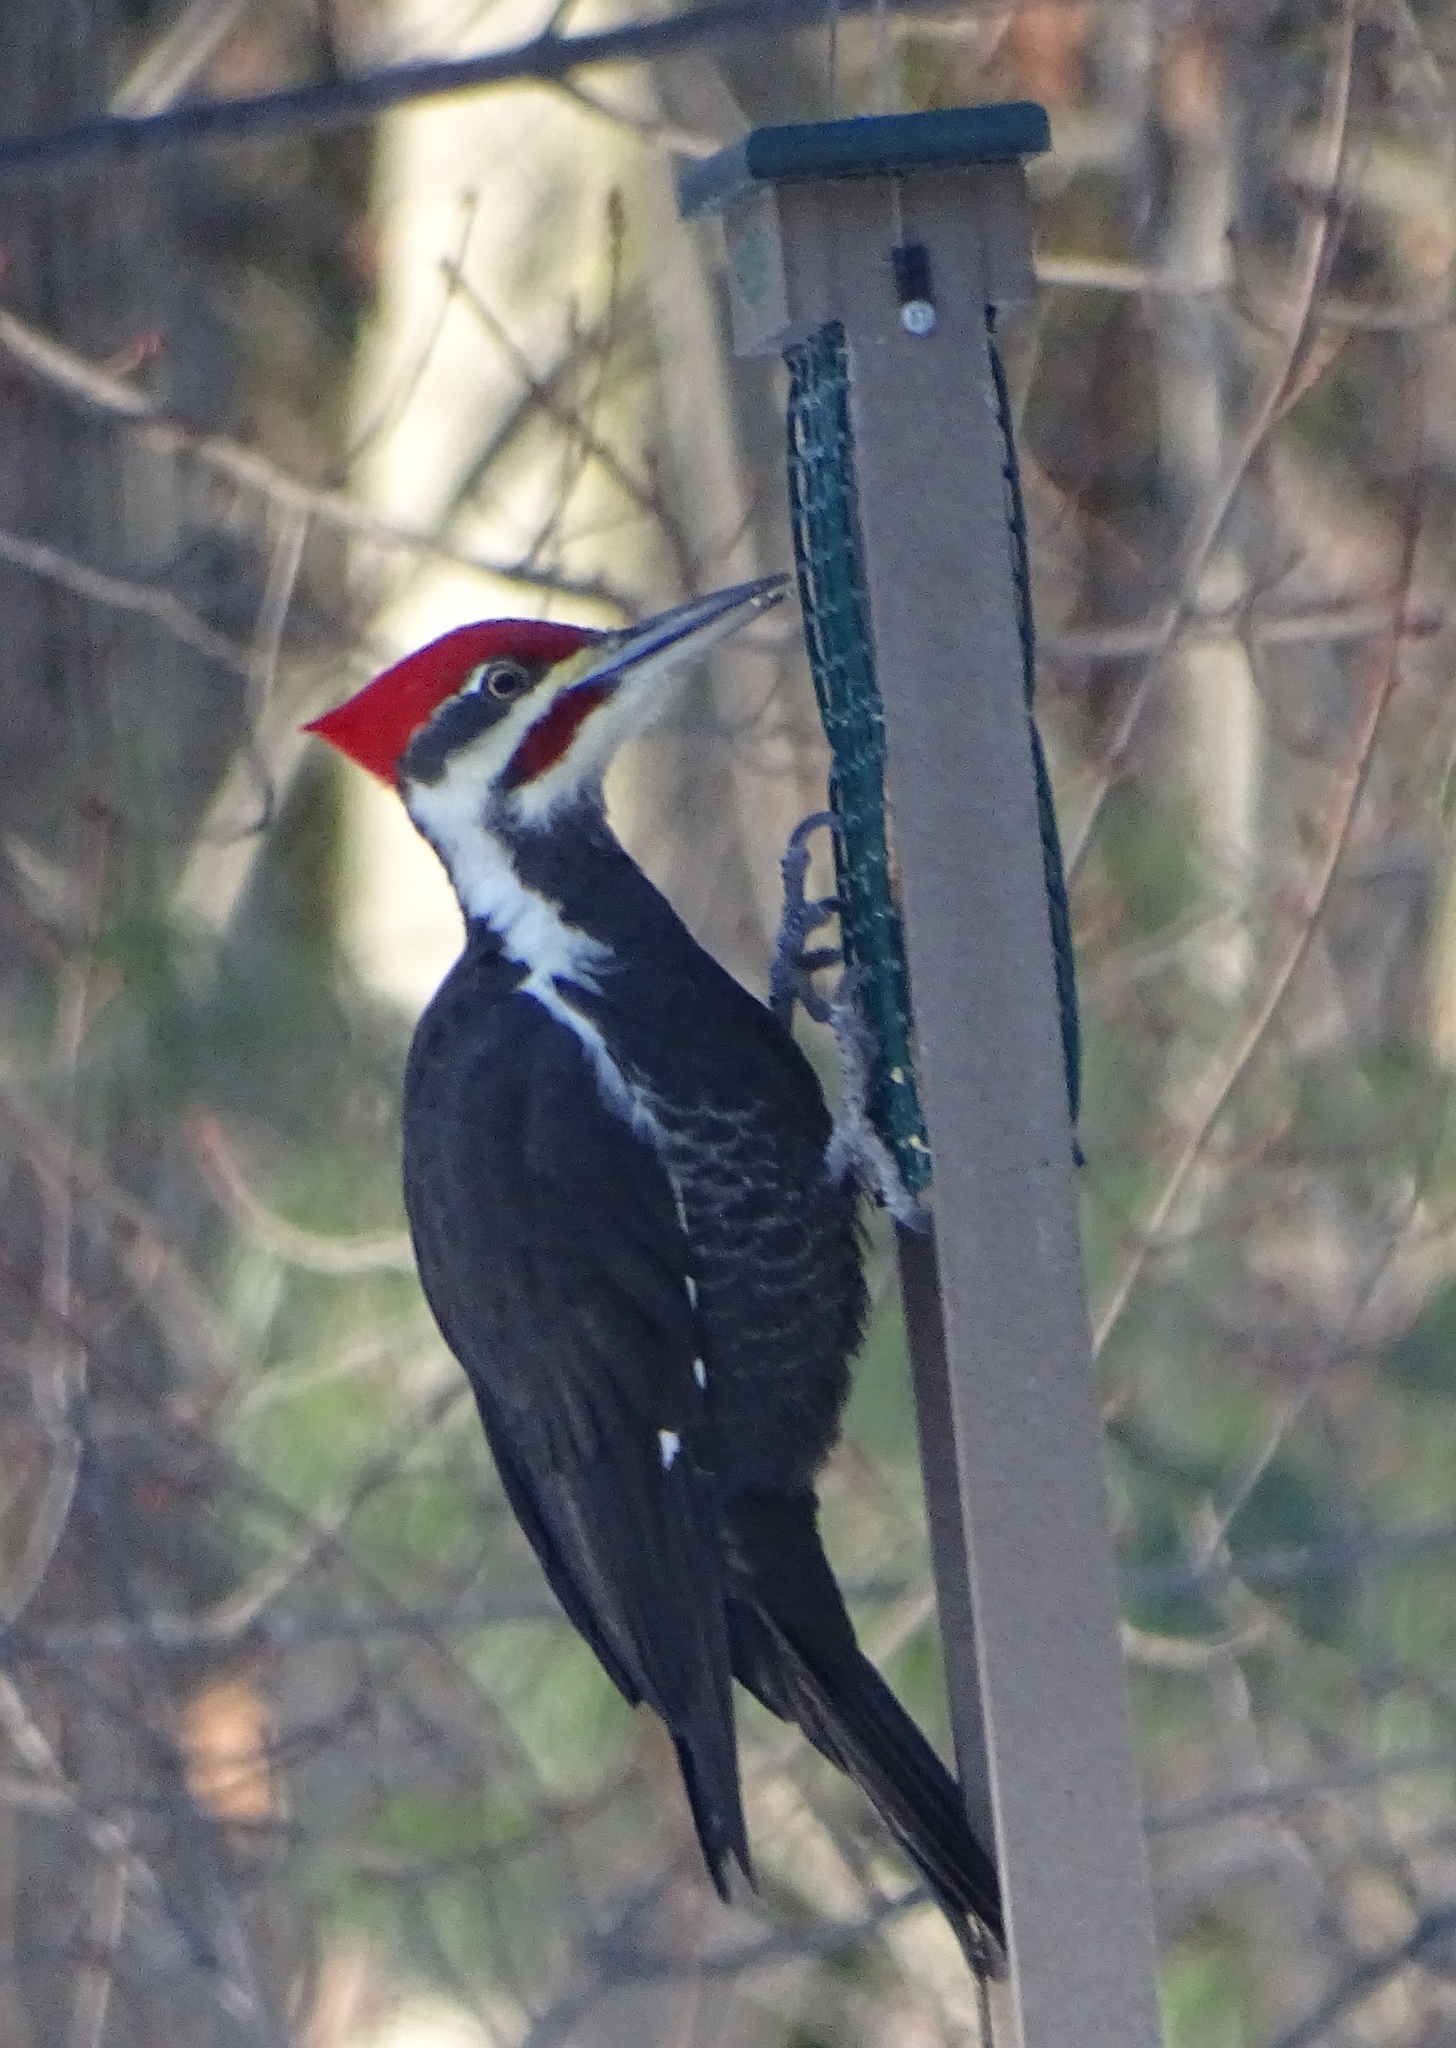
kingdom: Animalia
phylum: Chordata
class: Aves
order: Piciformes
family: Picidae
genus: Dryocopus
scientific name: Dryocopus pileatus
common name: Pileated woodpecker
